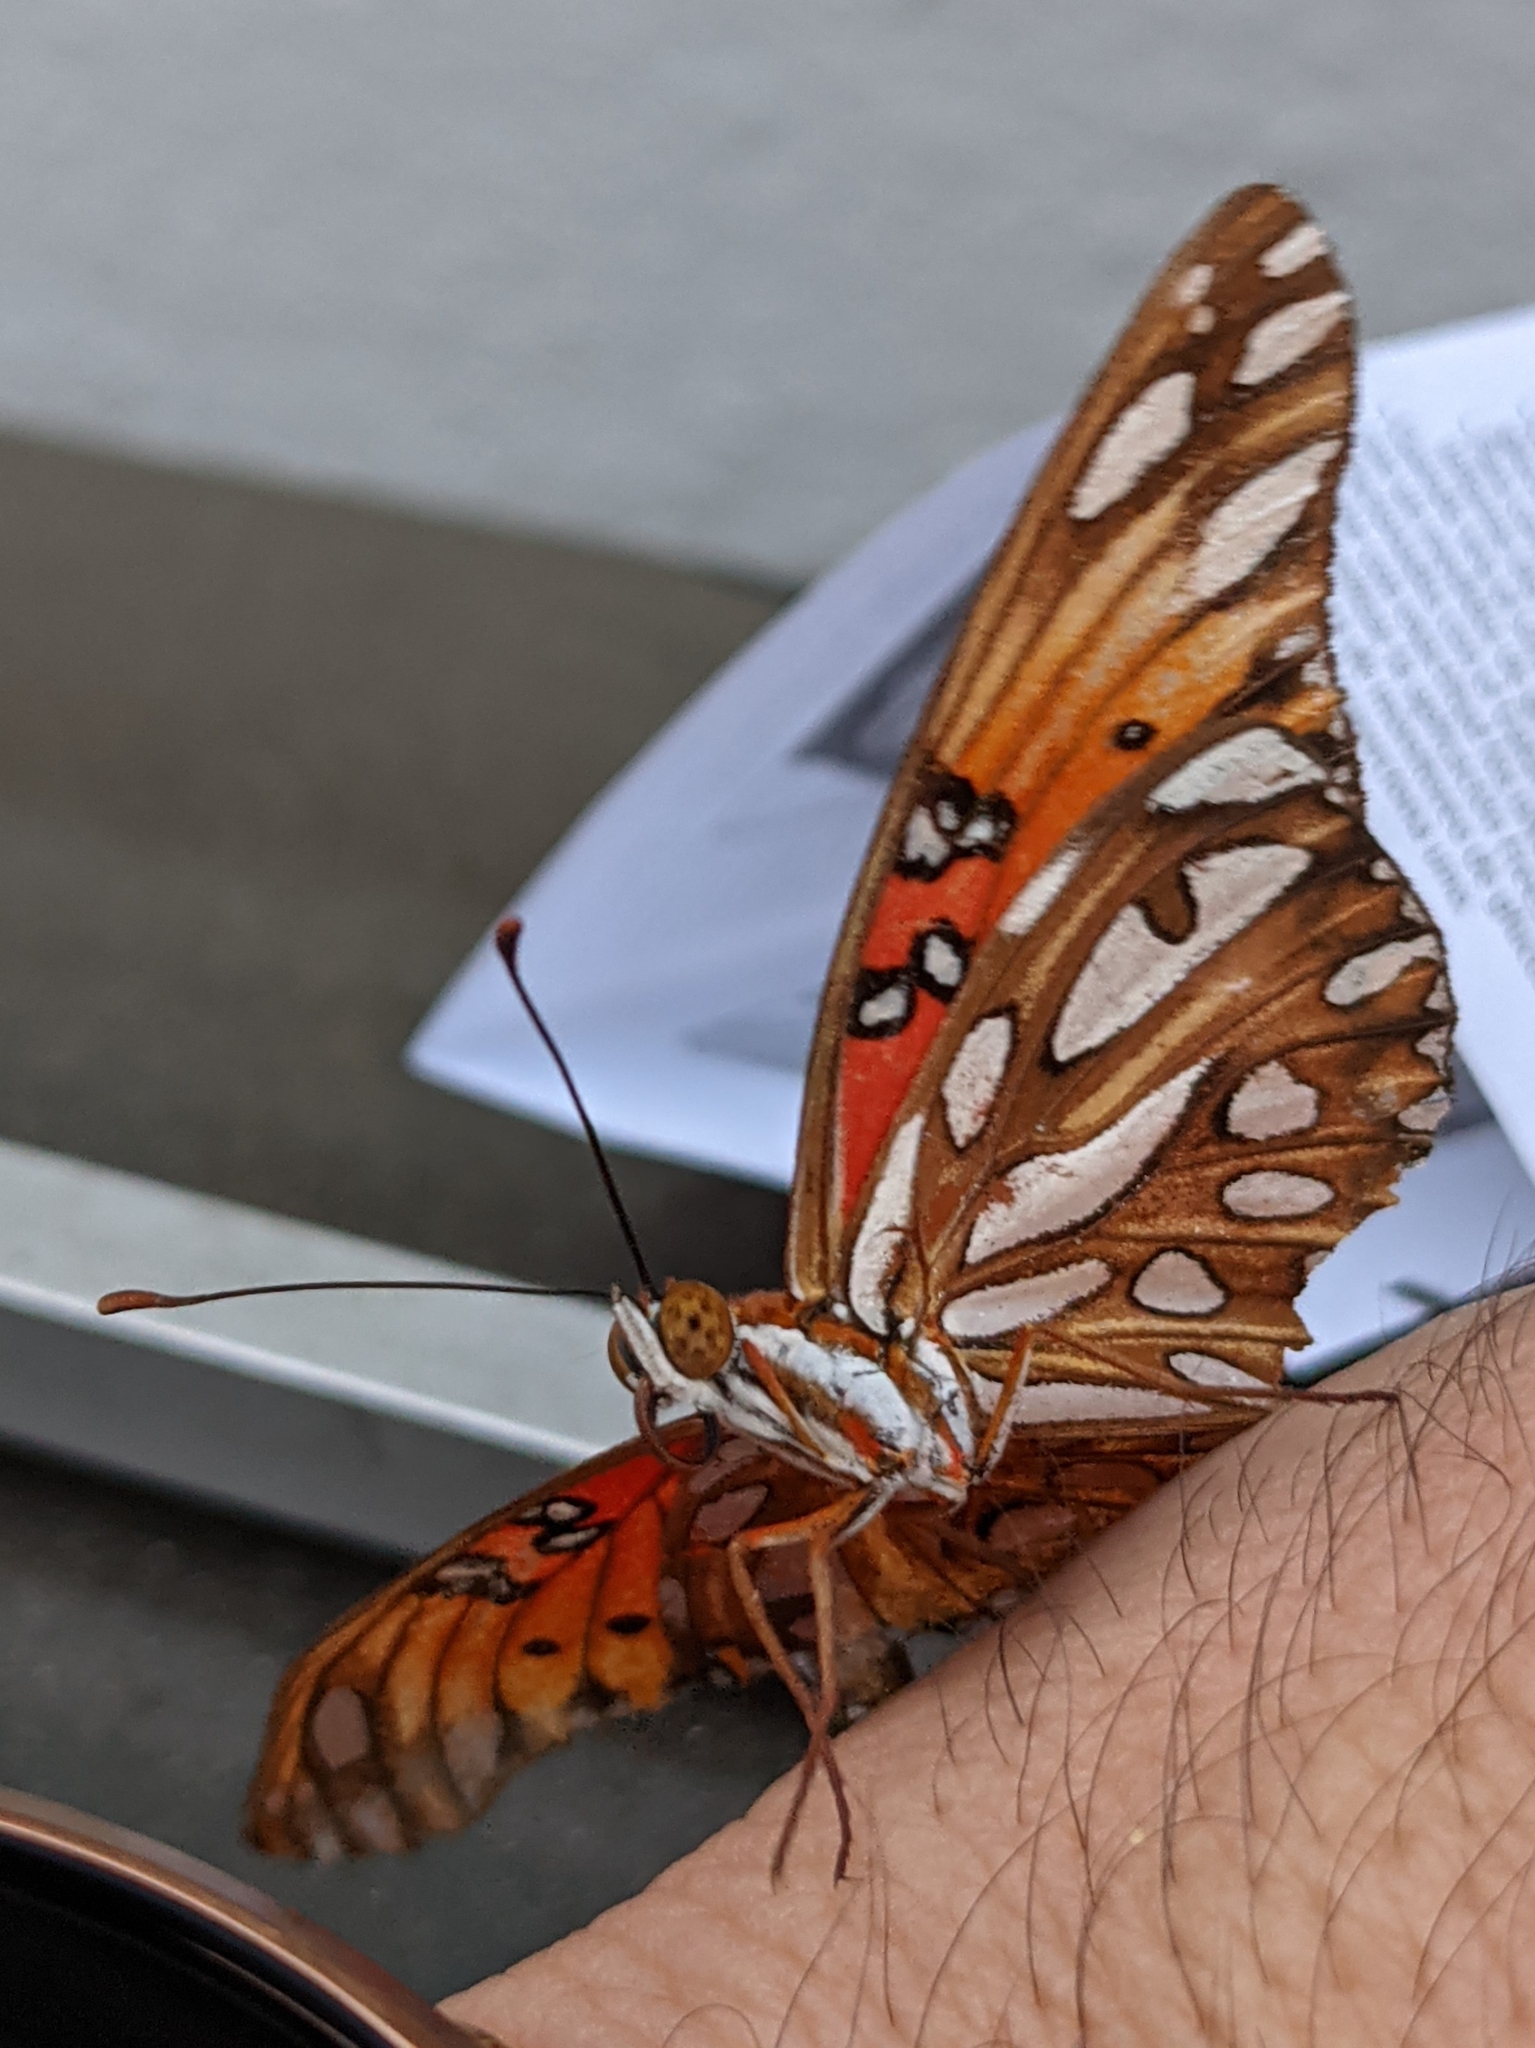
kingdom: Animalia
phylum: Arthropoda
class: Insecta
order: Lepidoptera
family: Nymphalidae
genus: Dione
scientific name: Dione vanillae
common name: Gulf fritillary
